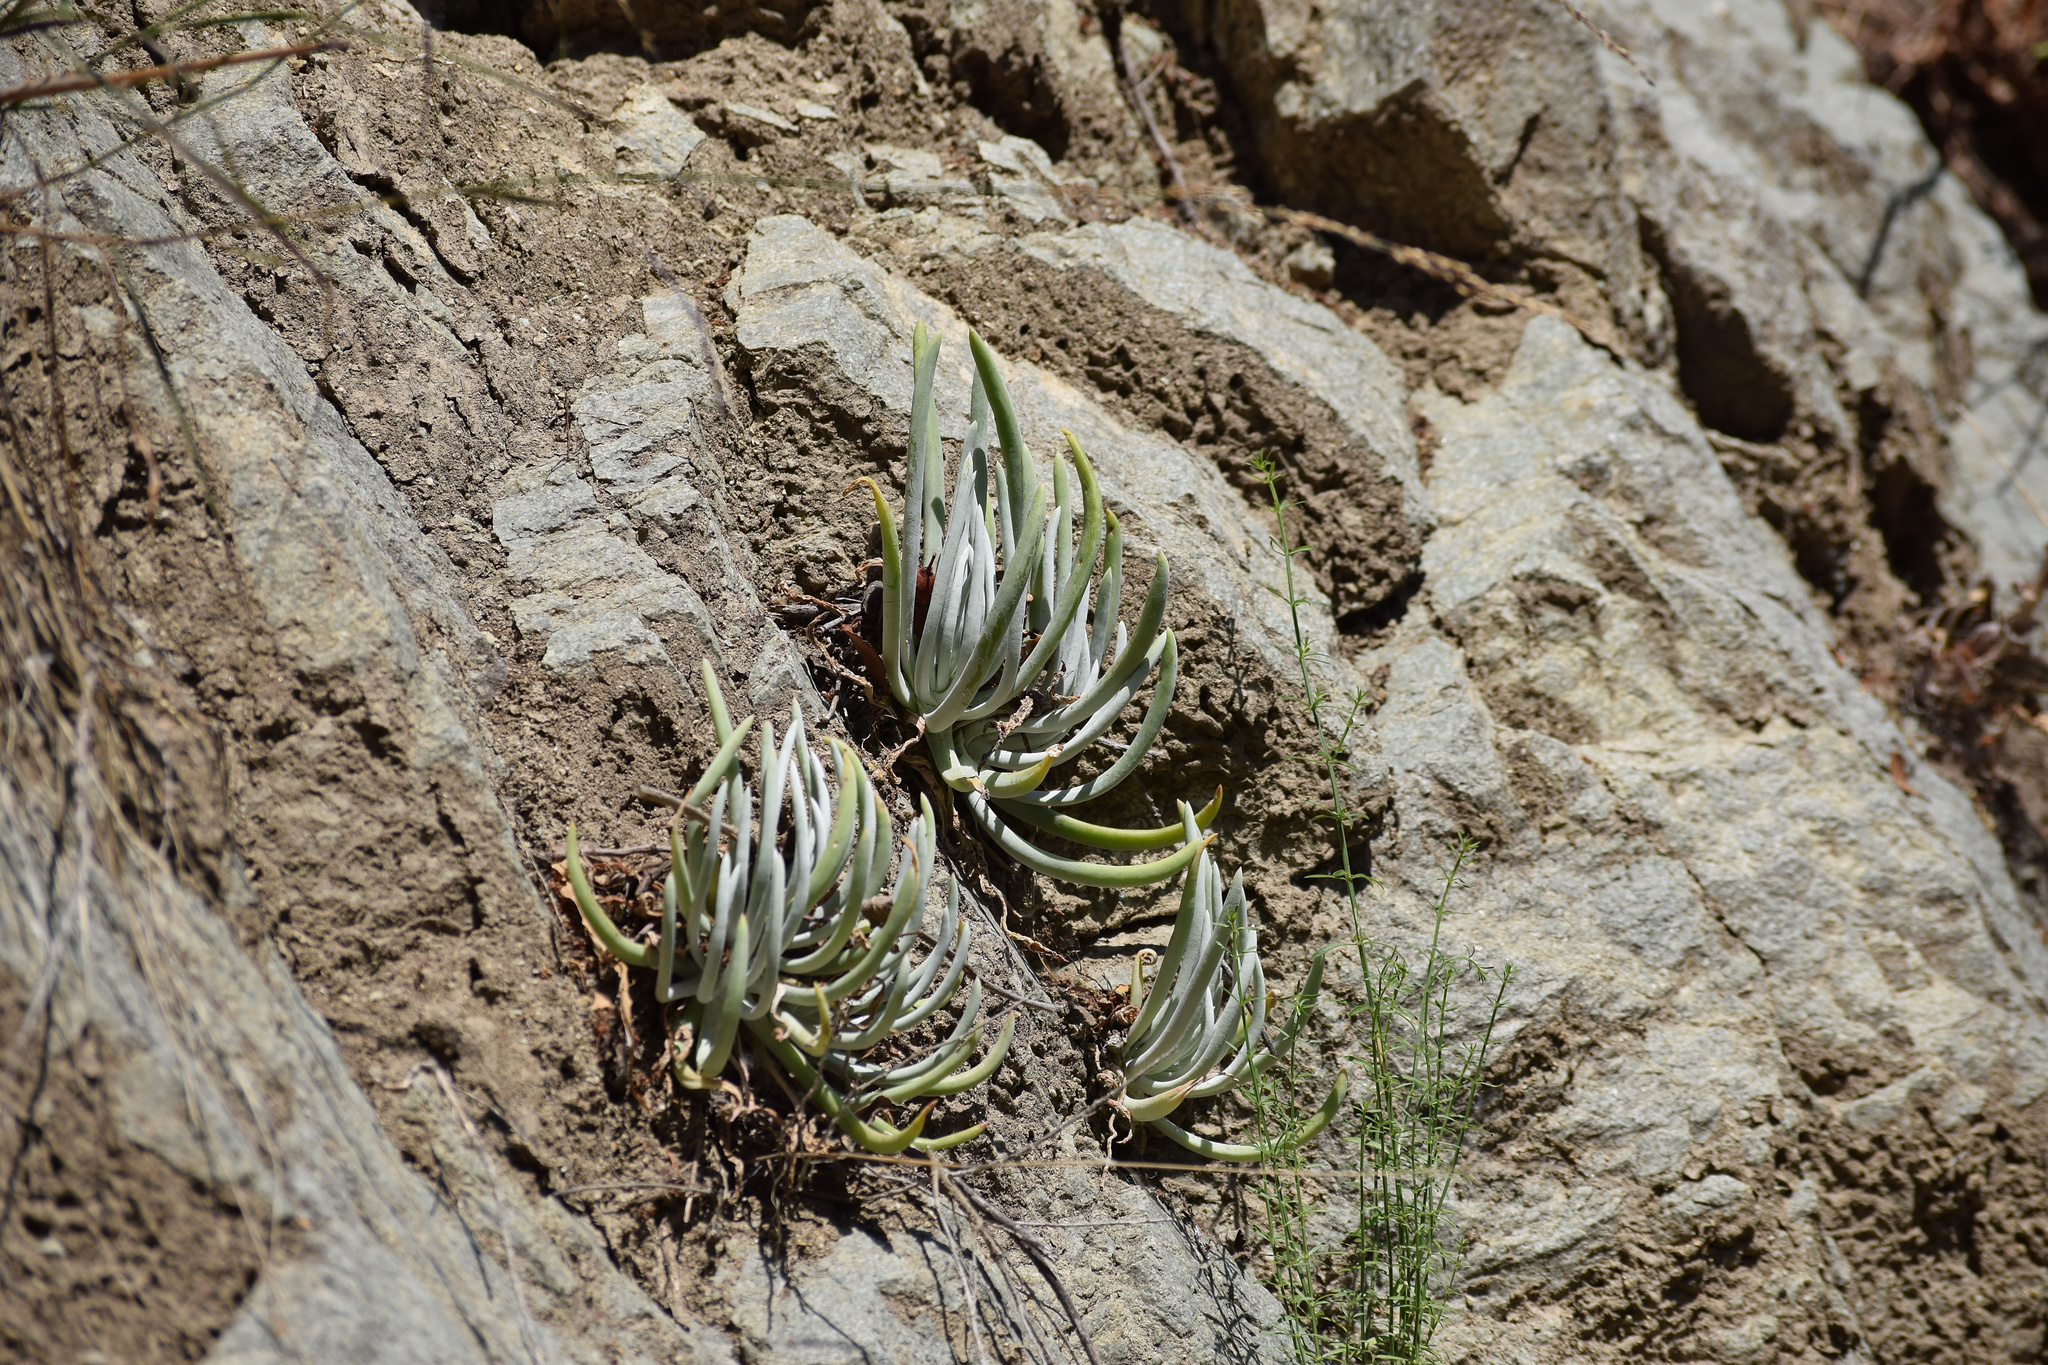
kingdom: Plantae
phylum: Tracheophyta
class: Magnoliopsida
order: Saxifragales
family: Crassulaceae
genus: Dudleya
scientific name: Dudleya densiflora
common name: San gabriel mountains dudleya
